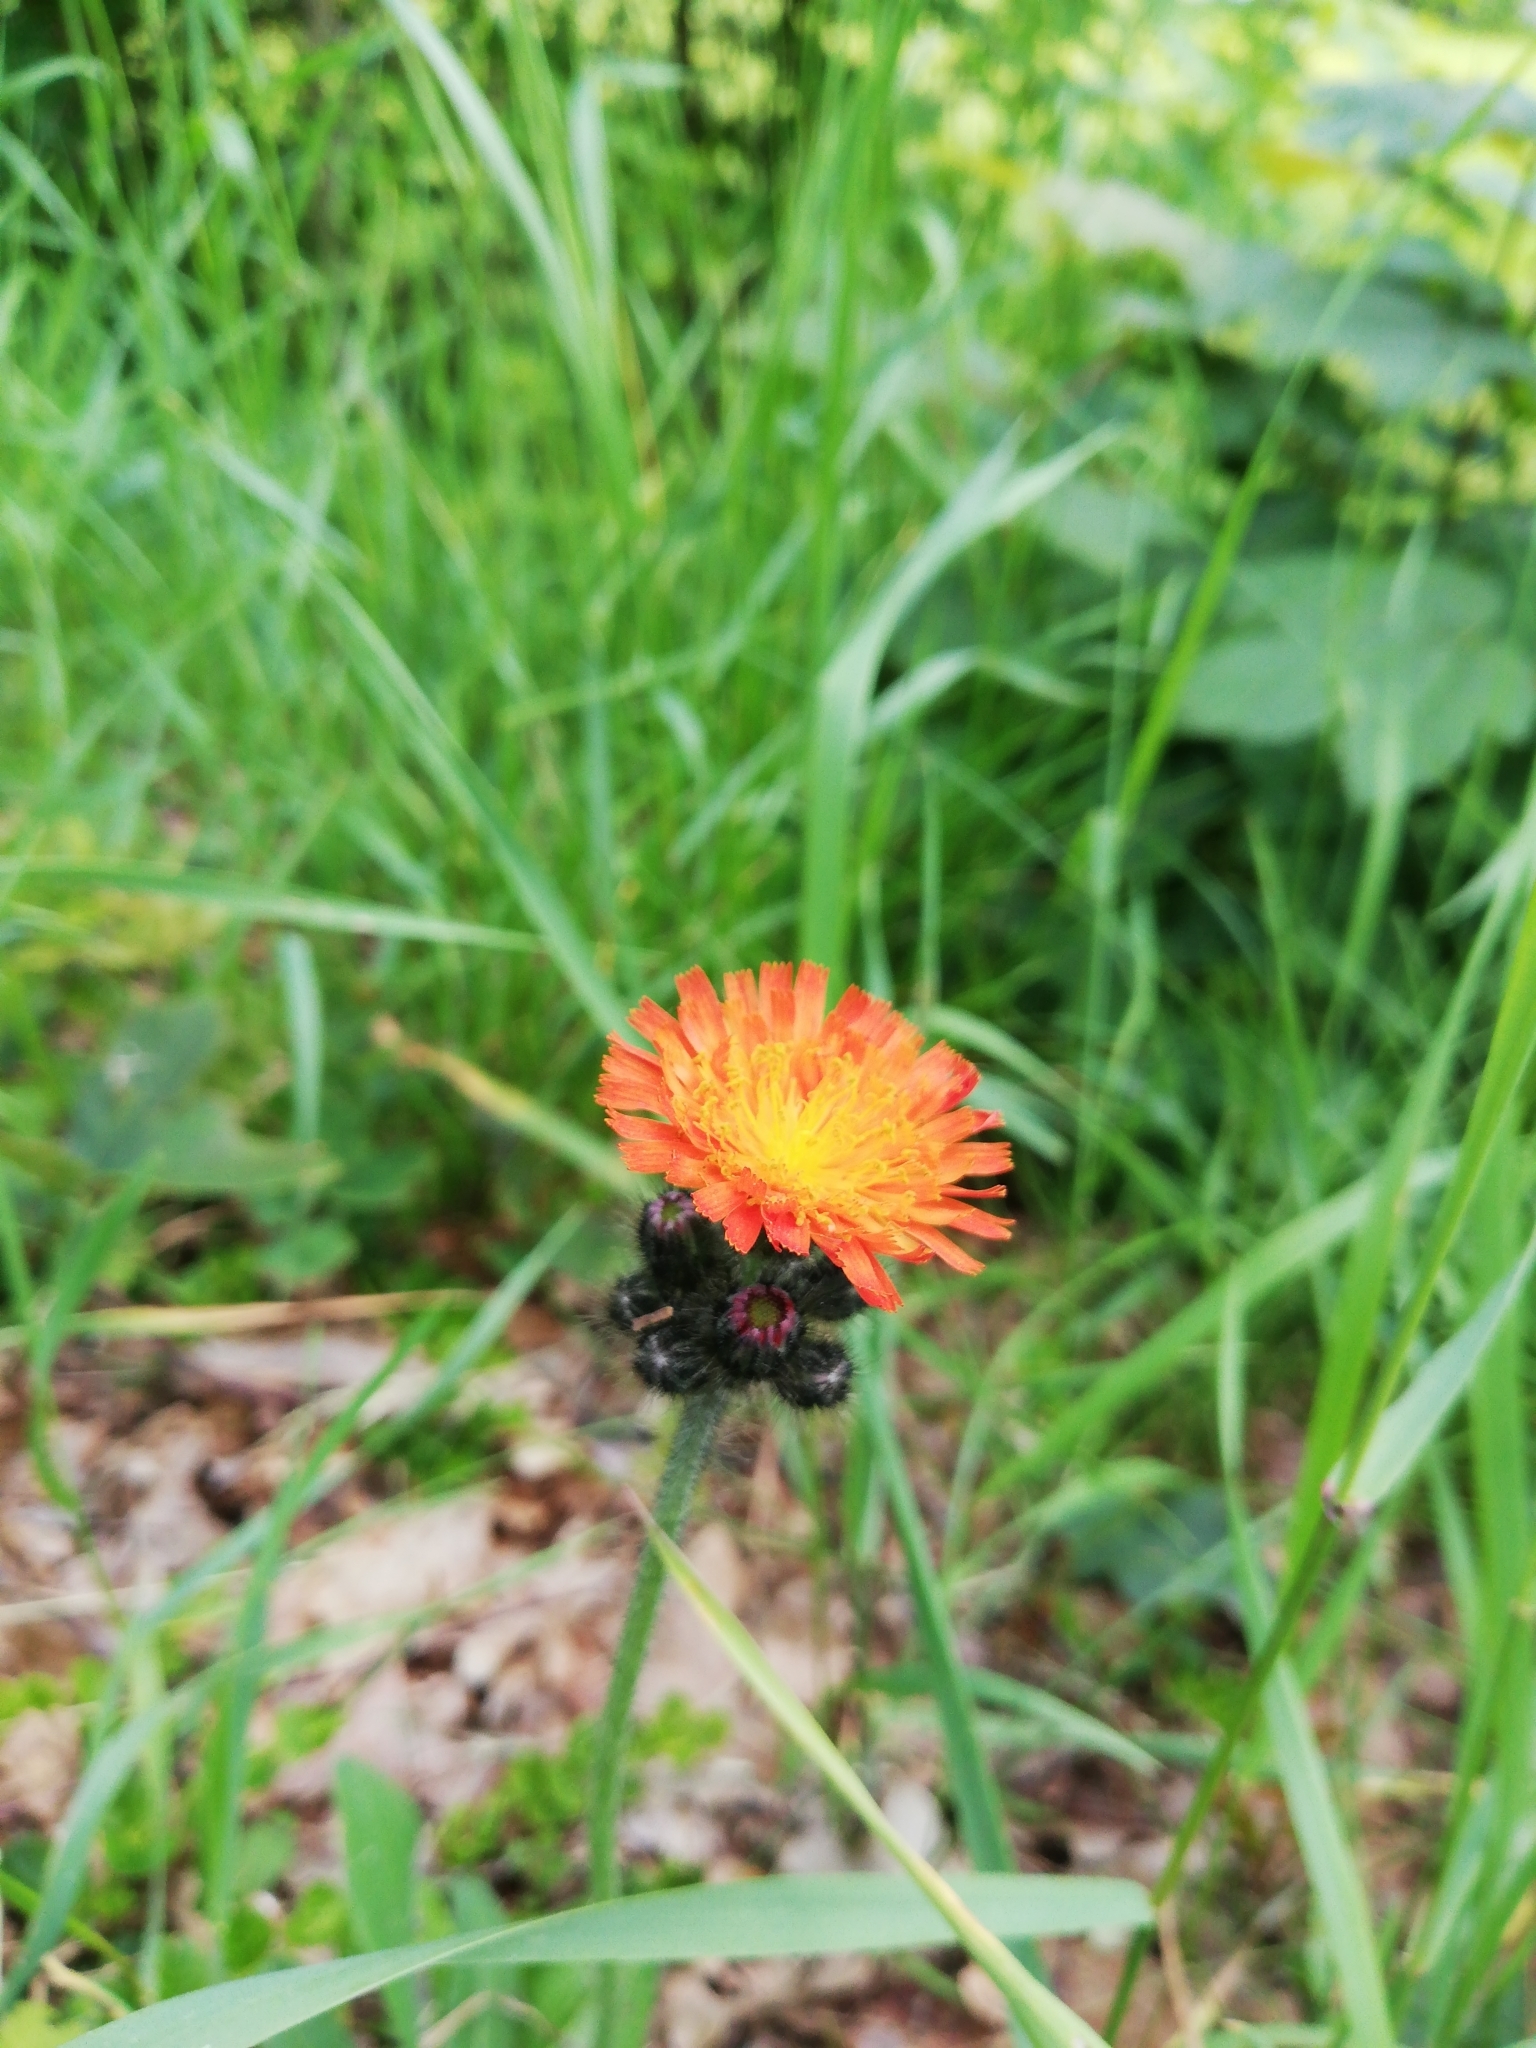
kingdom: Plantae
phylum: Tracheophyta
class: Magnoliopsida
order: Asterales
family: Asteraceae
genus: Pilosella
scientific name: Pilosella aurantiaca
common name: Fox-and-cubs
